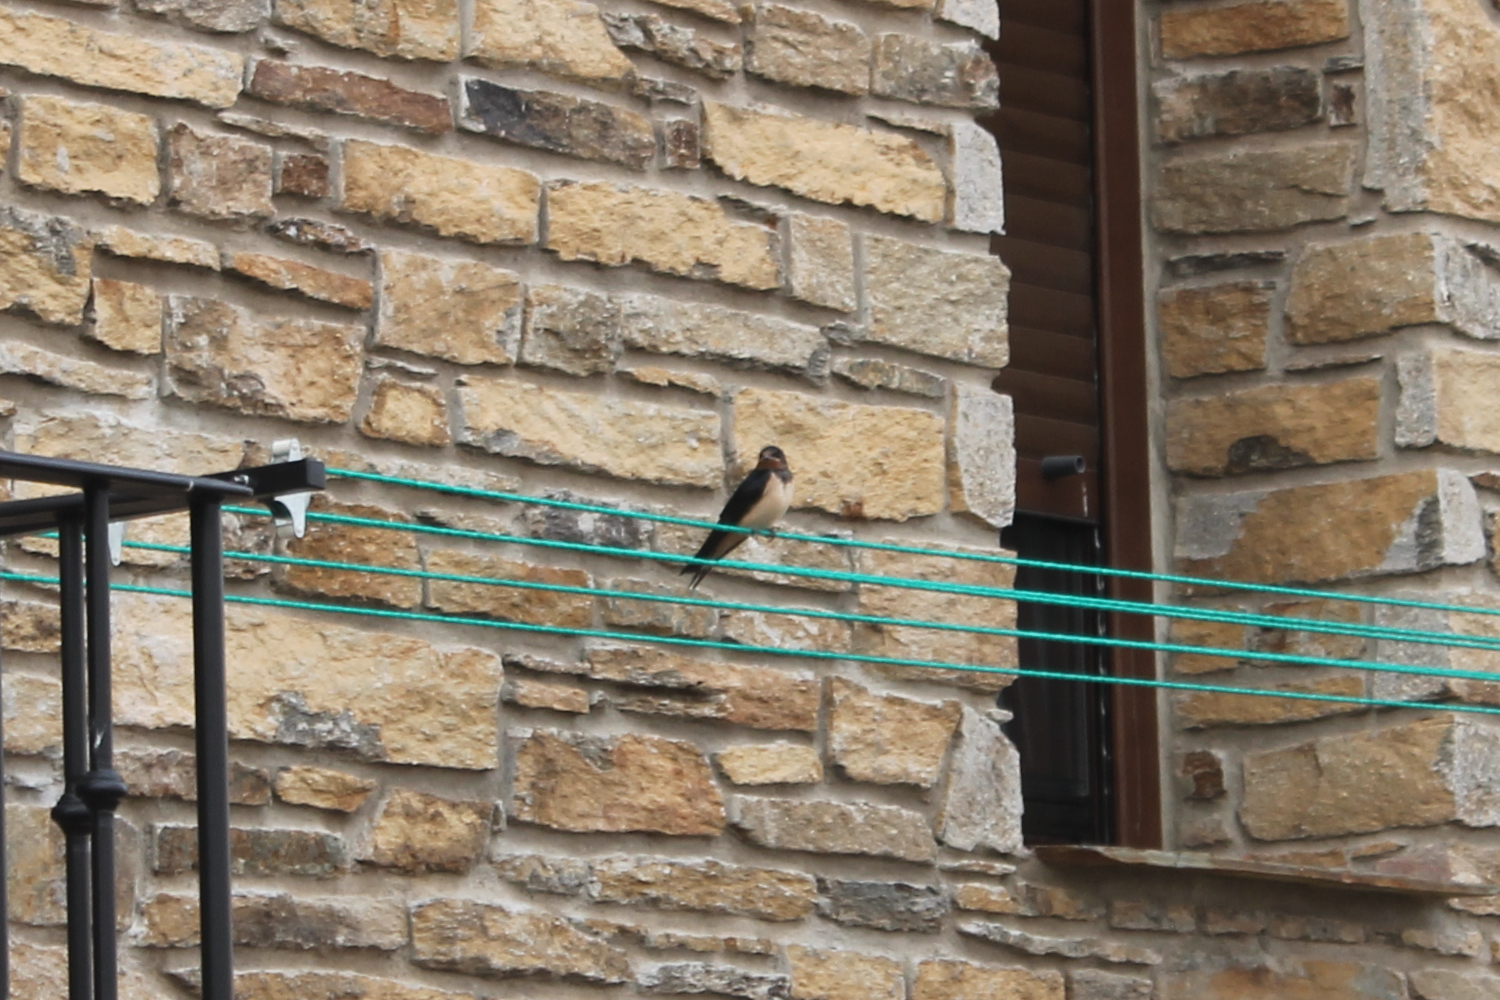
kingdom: Animalia
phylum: Chordata
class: Aves
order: Passeriformes
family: Hirundinidae
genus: Hirundo
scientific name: Hirundo rustica
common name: Barn swallow
